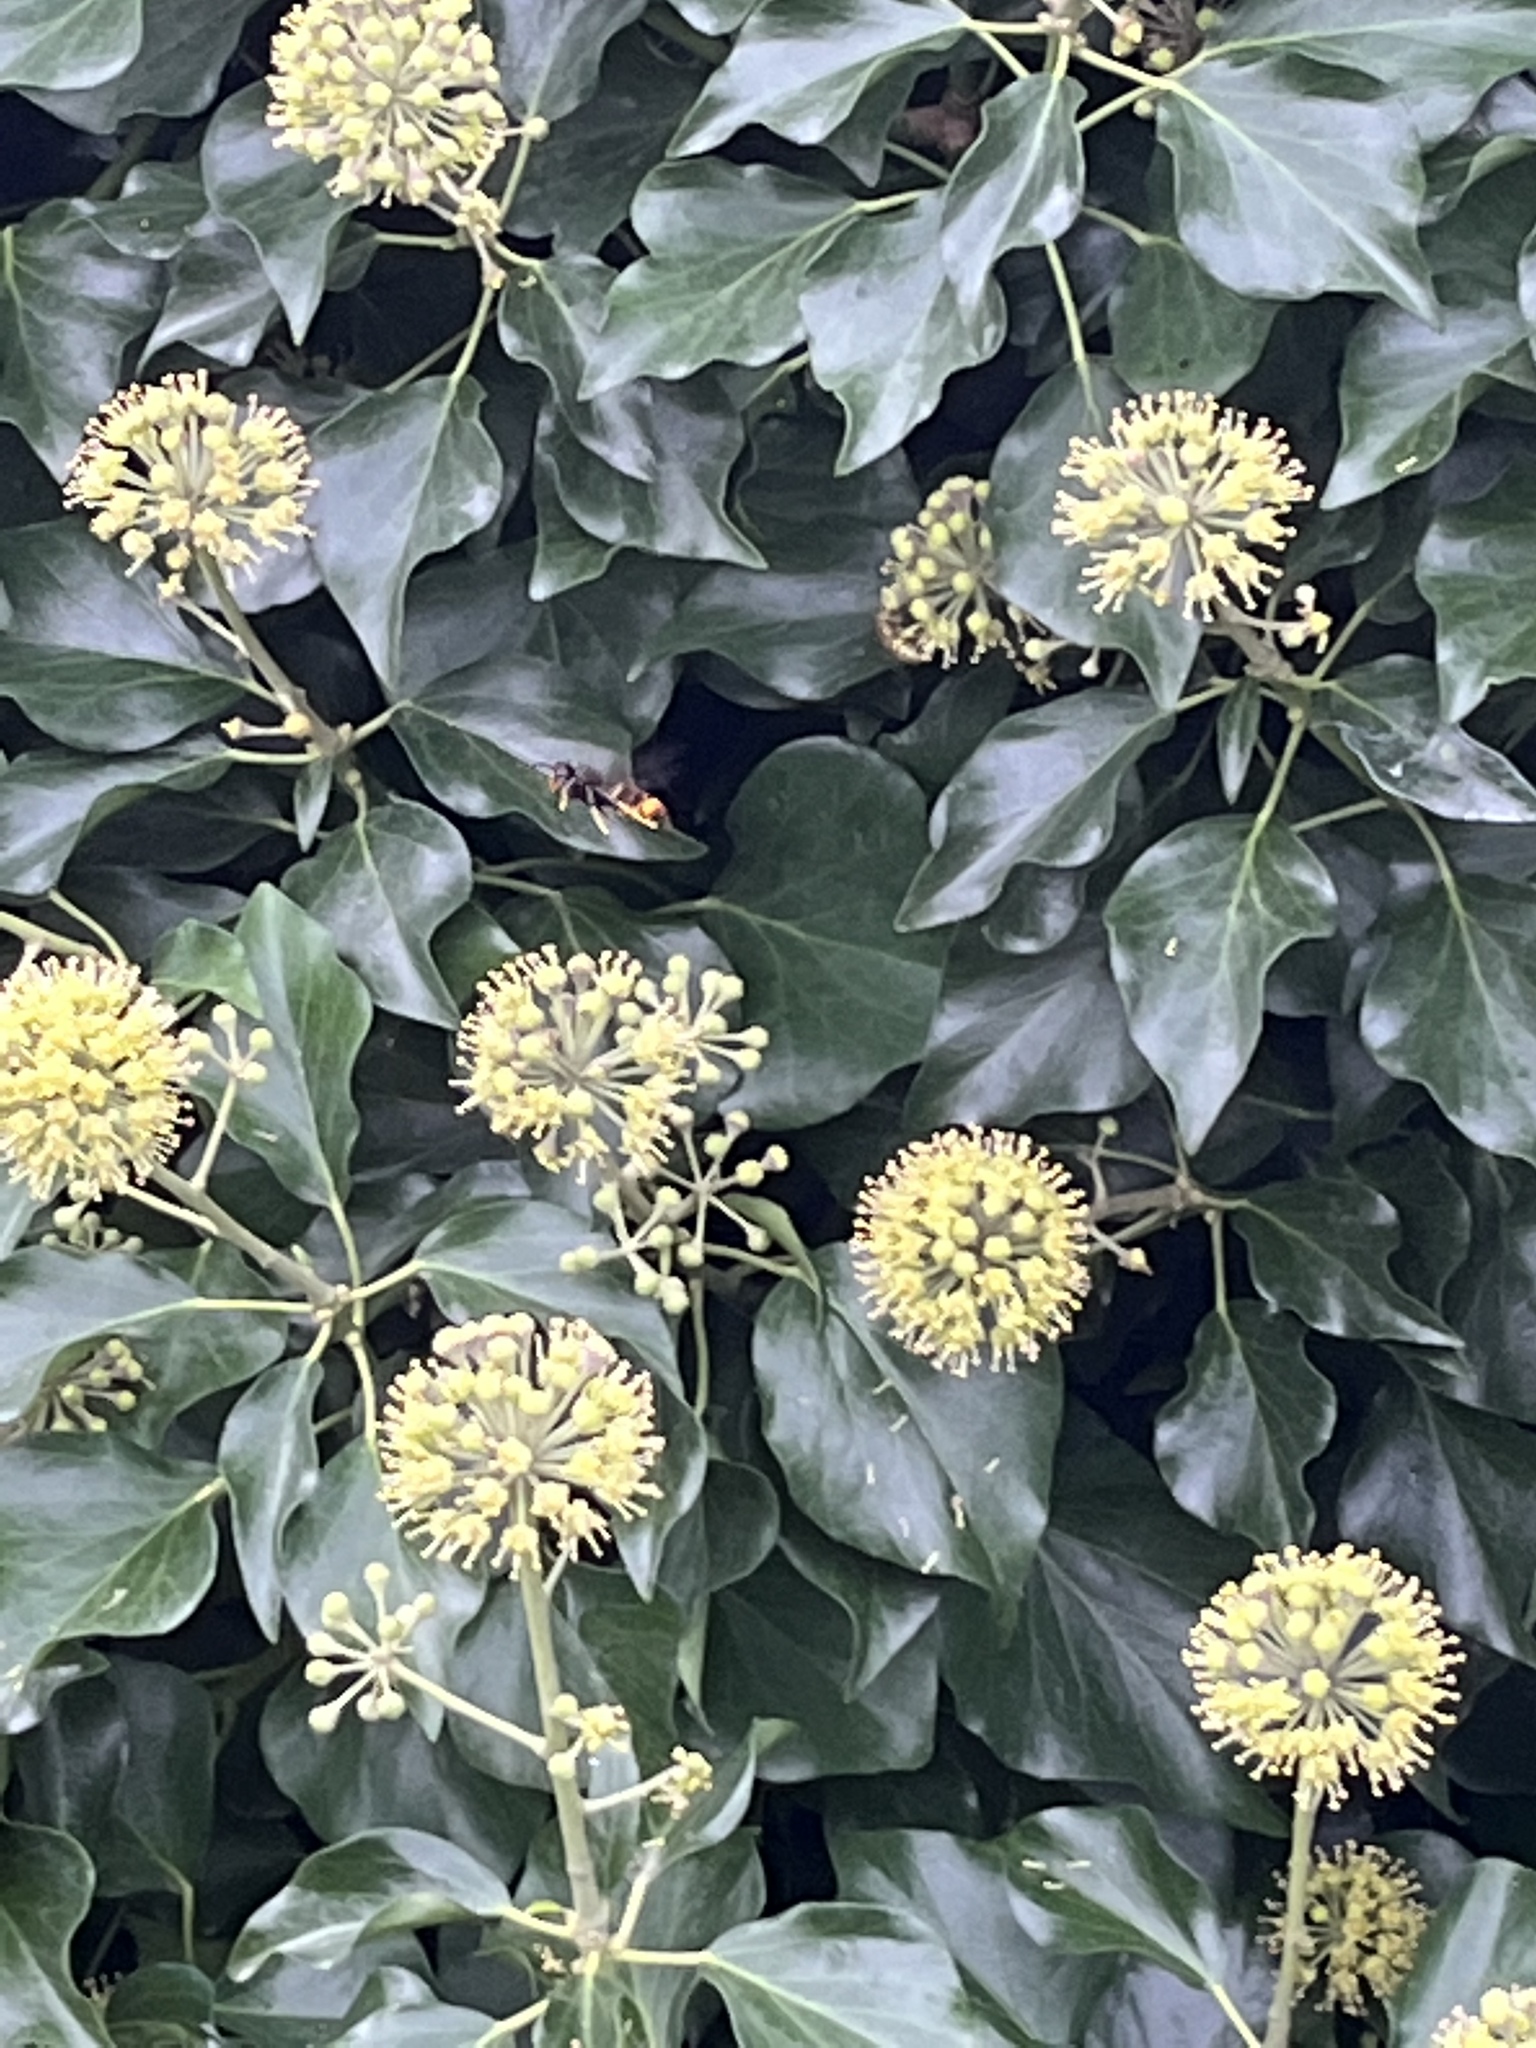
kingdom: Animalia
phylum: Arthropoda
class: Insecta
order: Hymenoptera
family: Vespidae
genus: Vespa
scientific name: Vespa velutina
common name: Asian hornet
